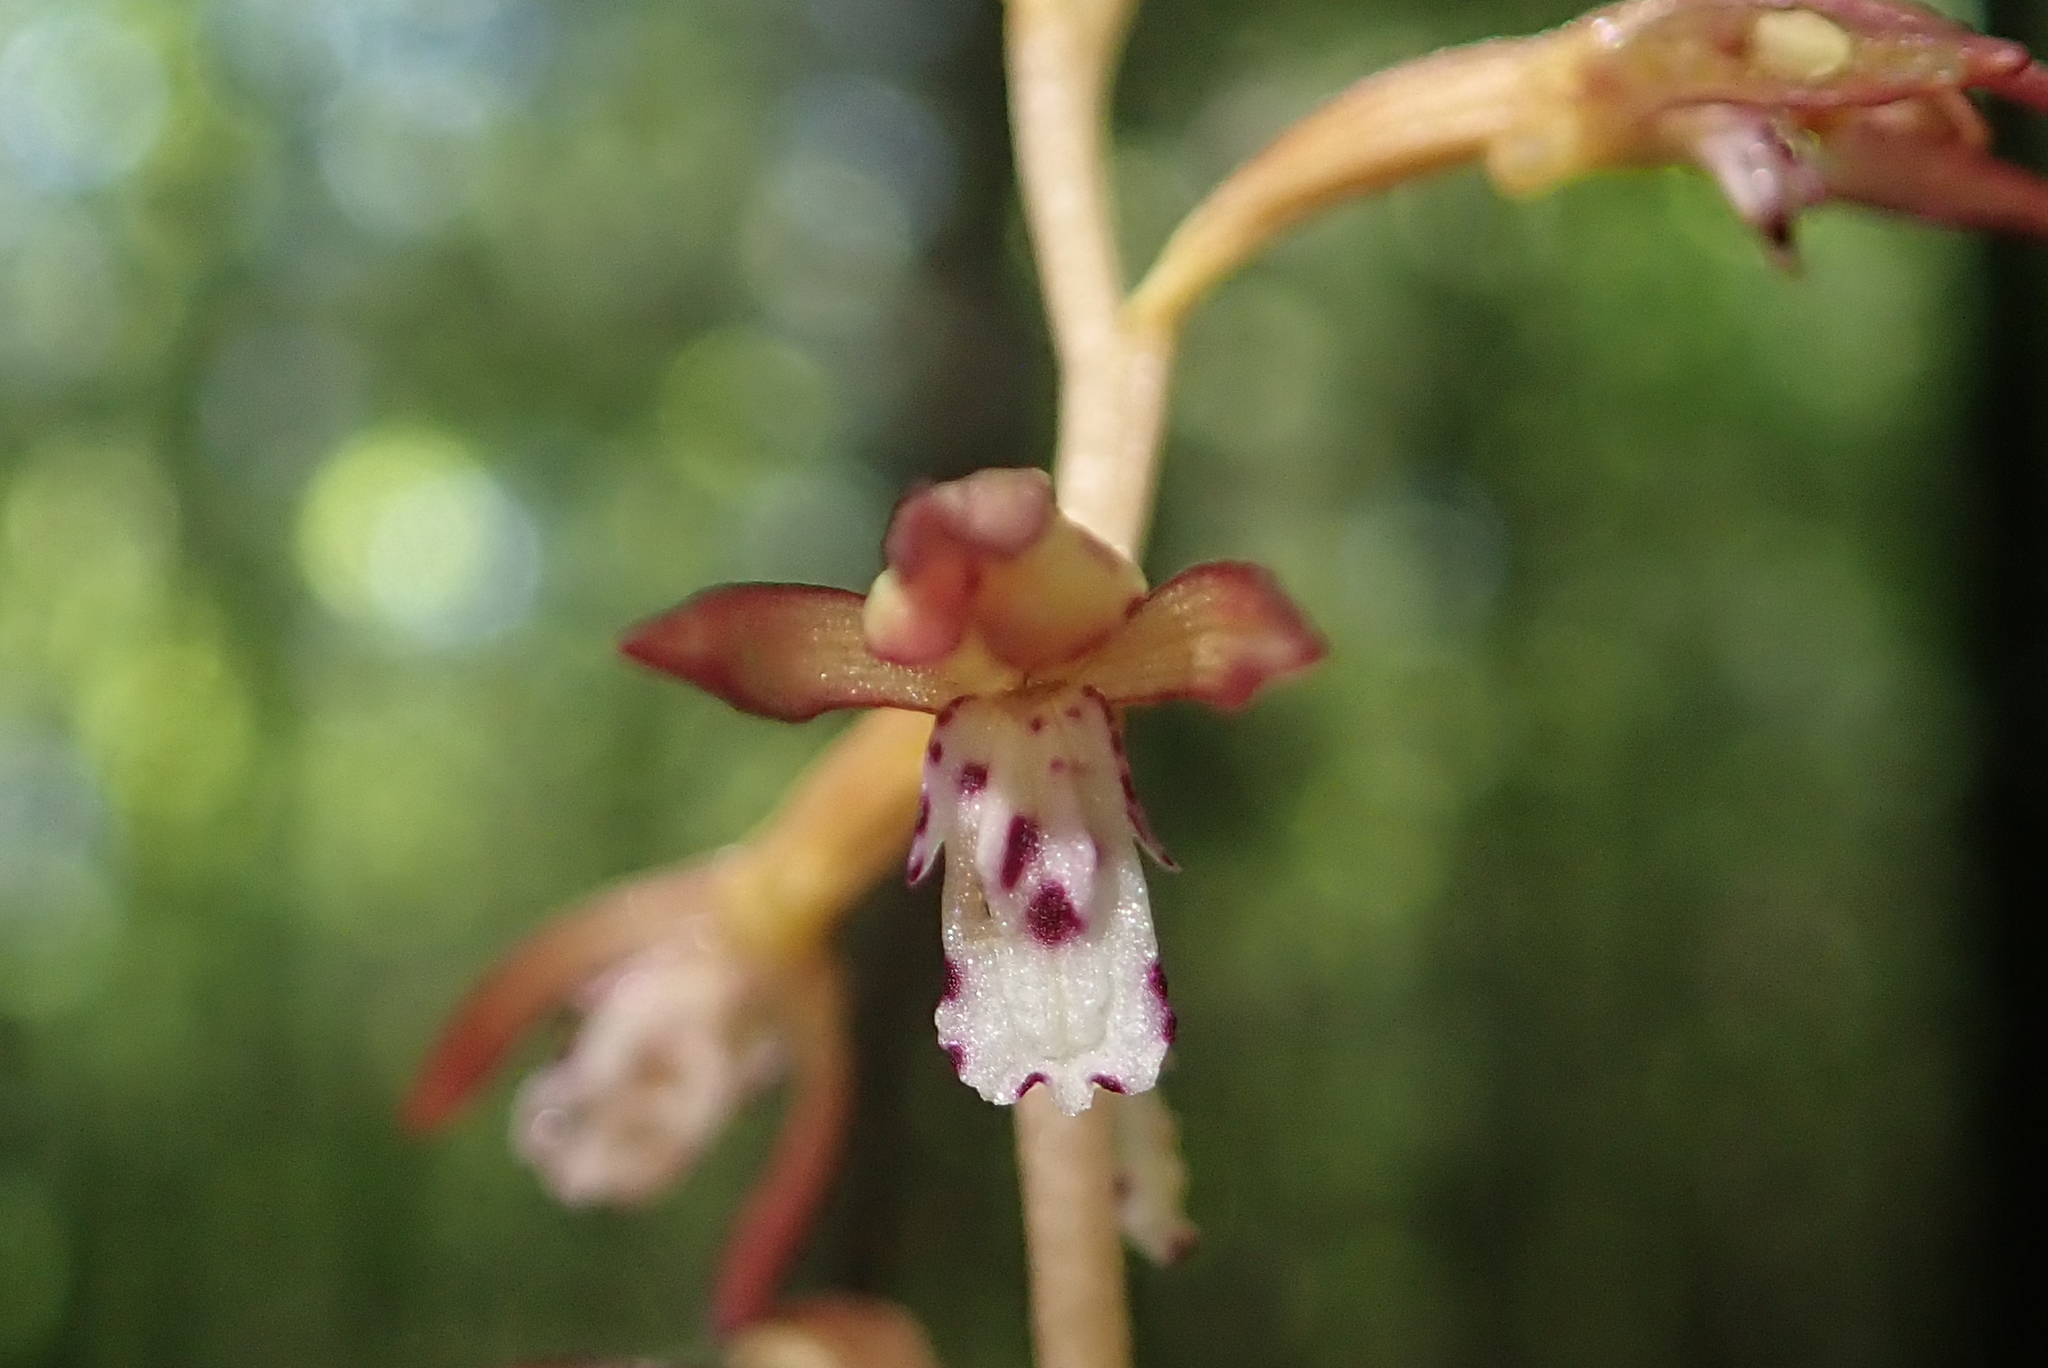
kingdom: Plantae
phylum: Tracheophyta
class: Liliopsida
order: Asparagales
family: Orchidaceae
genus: Corallorhiza
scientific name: Corallorhiza maculata
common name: Spotted coralroot
